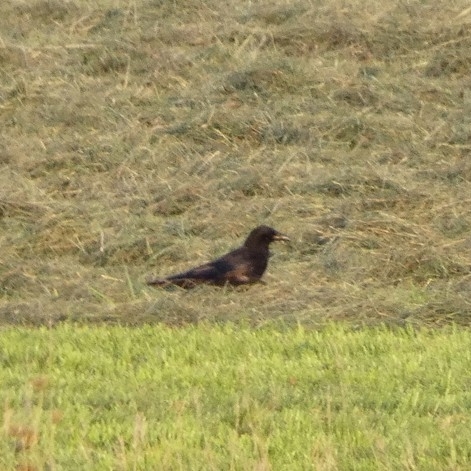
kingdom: Animalia
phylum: Chordata
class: Aves
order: Passeriformes
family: Corvidae
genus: Corvus
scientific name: Corvus corone
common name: Carrion crow
